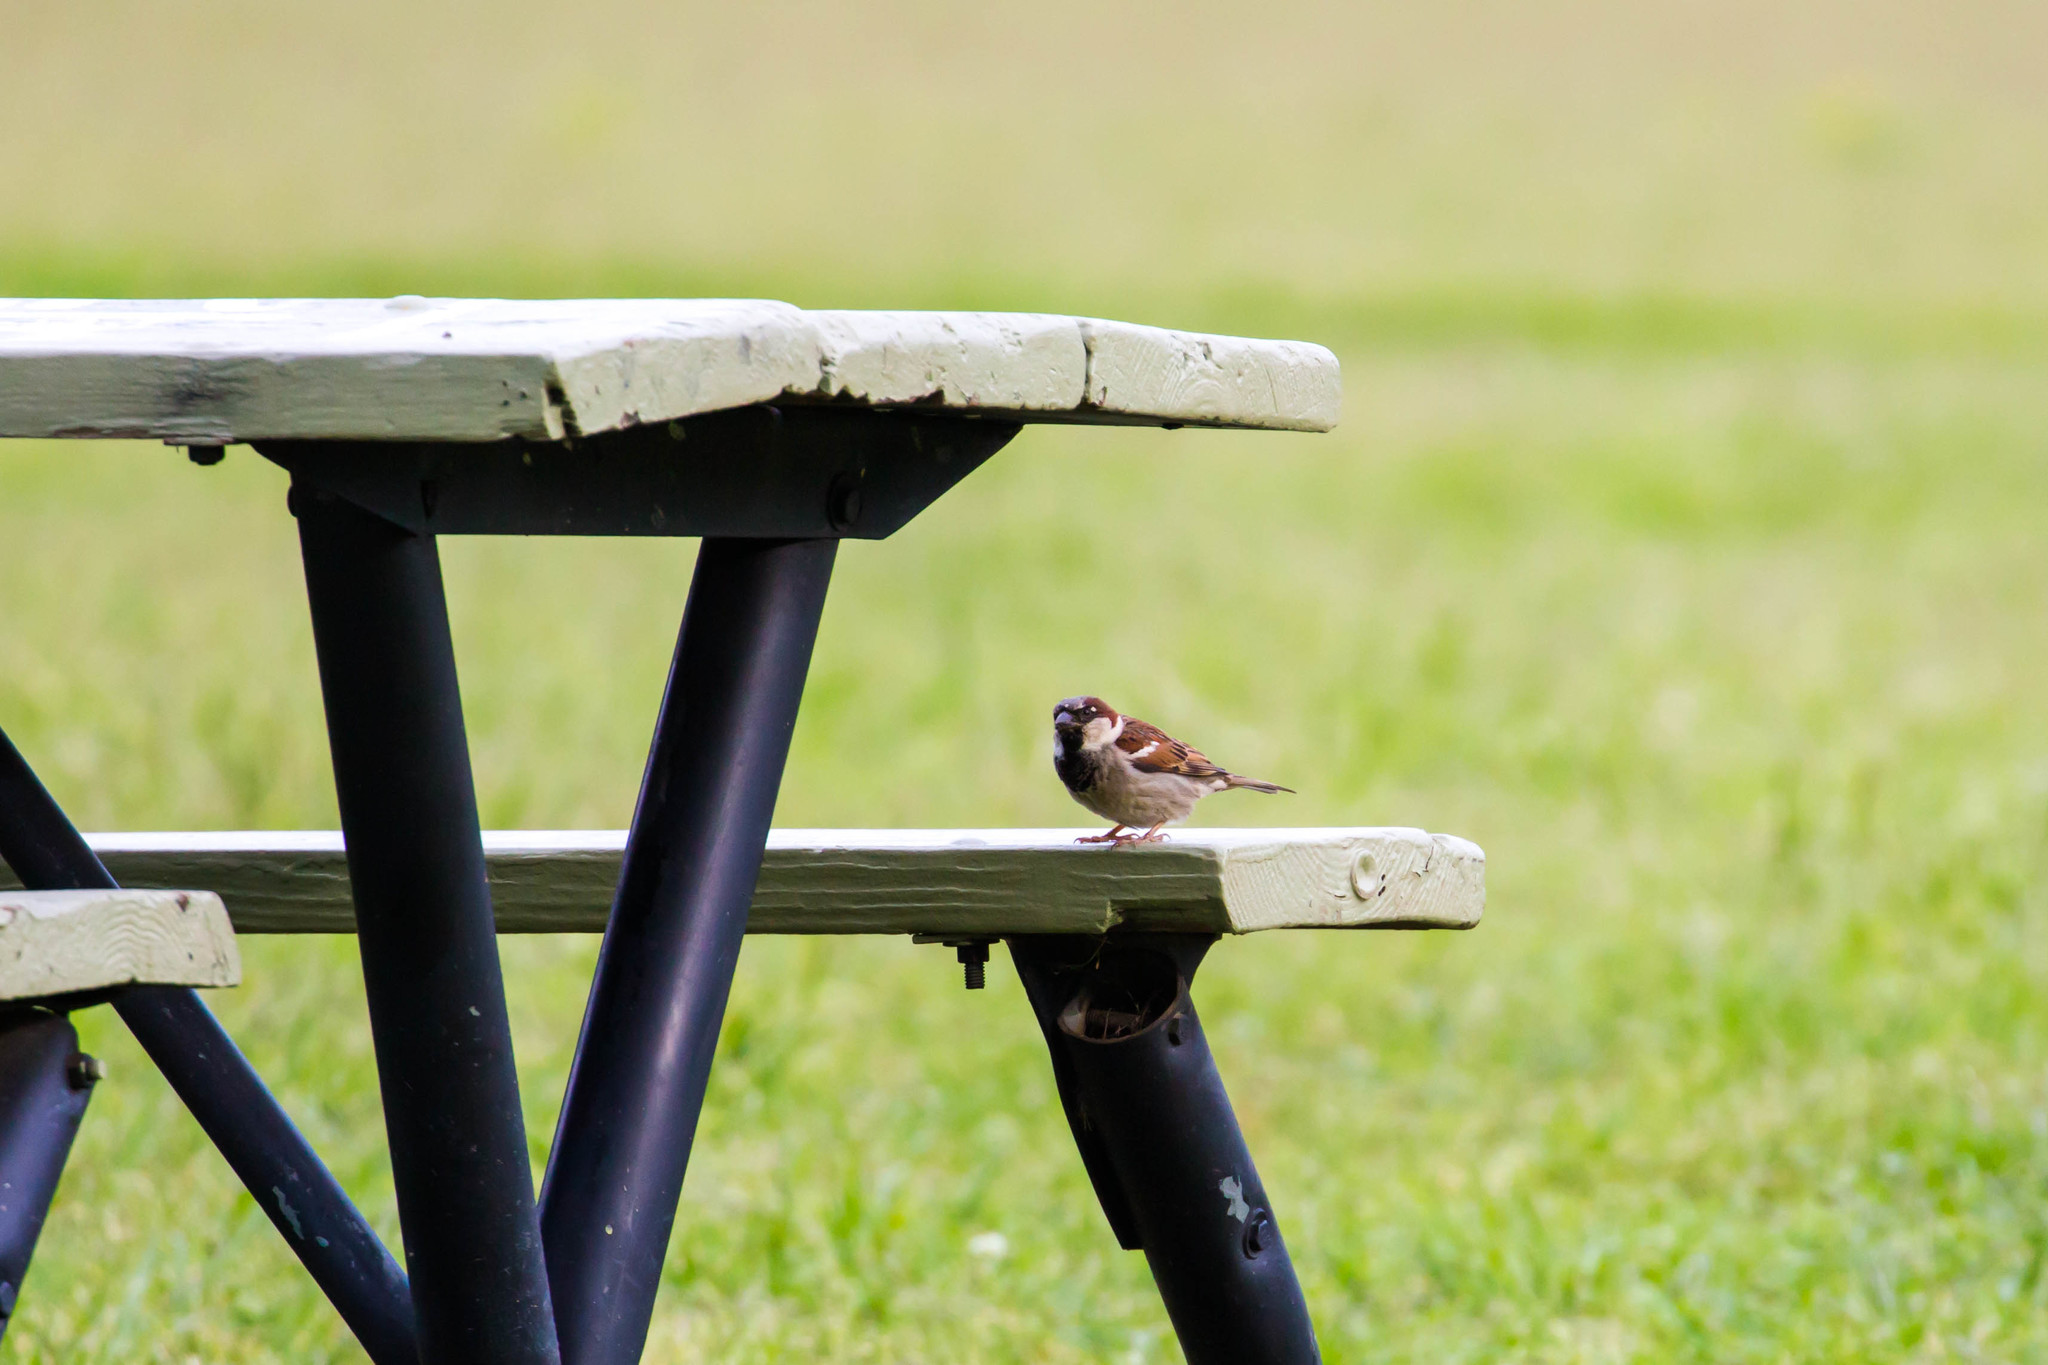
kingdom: Animalia
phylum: Chordata
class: Aves
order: Passeriformes
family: Passeridae
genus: Passer
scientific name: Passer domesticus
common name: House sparrow
